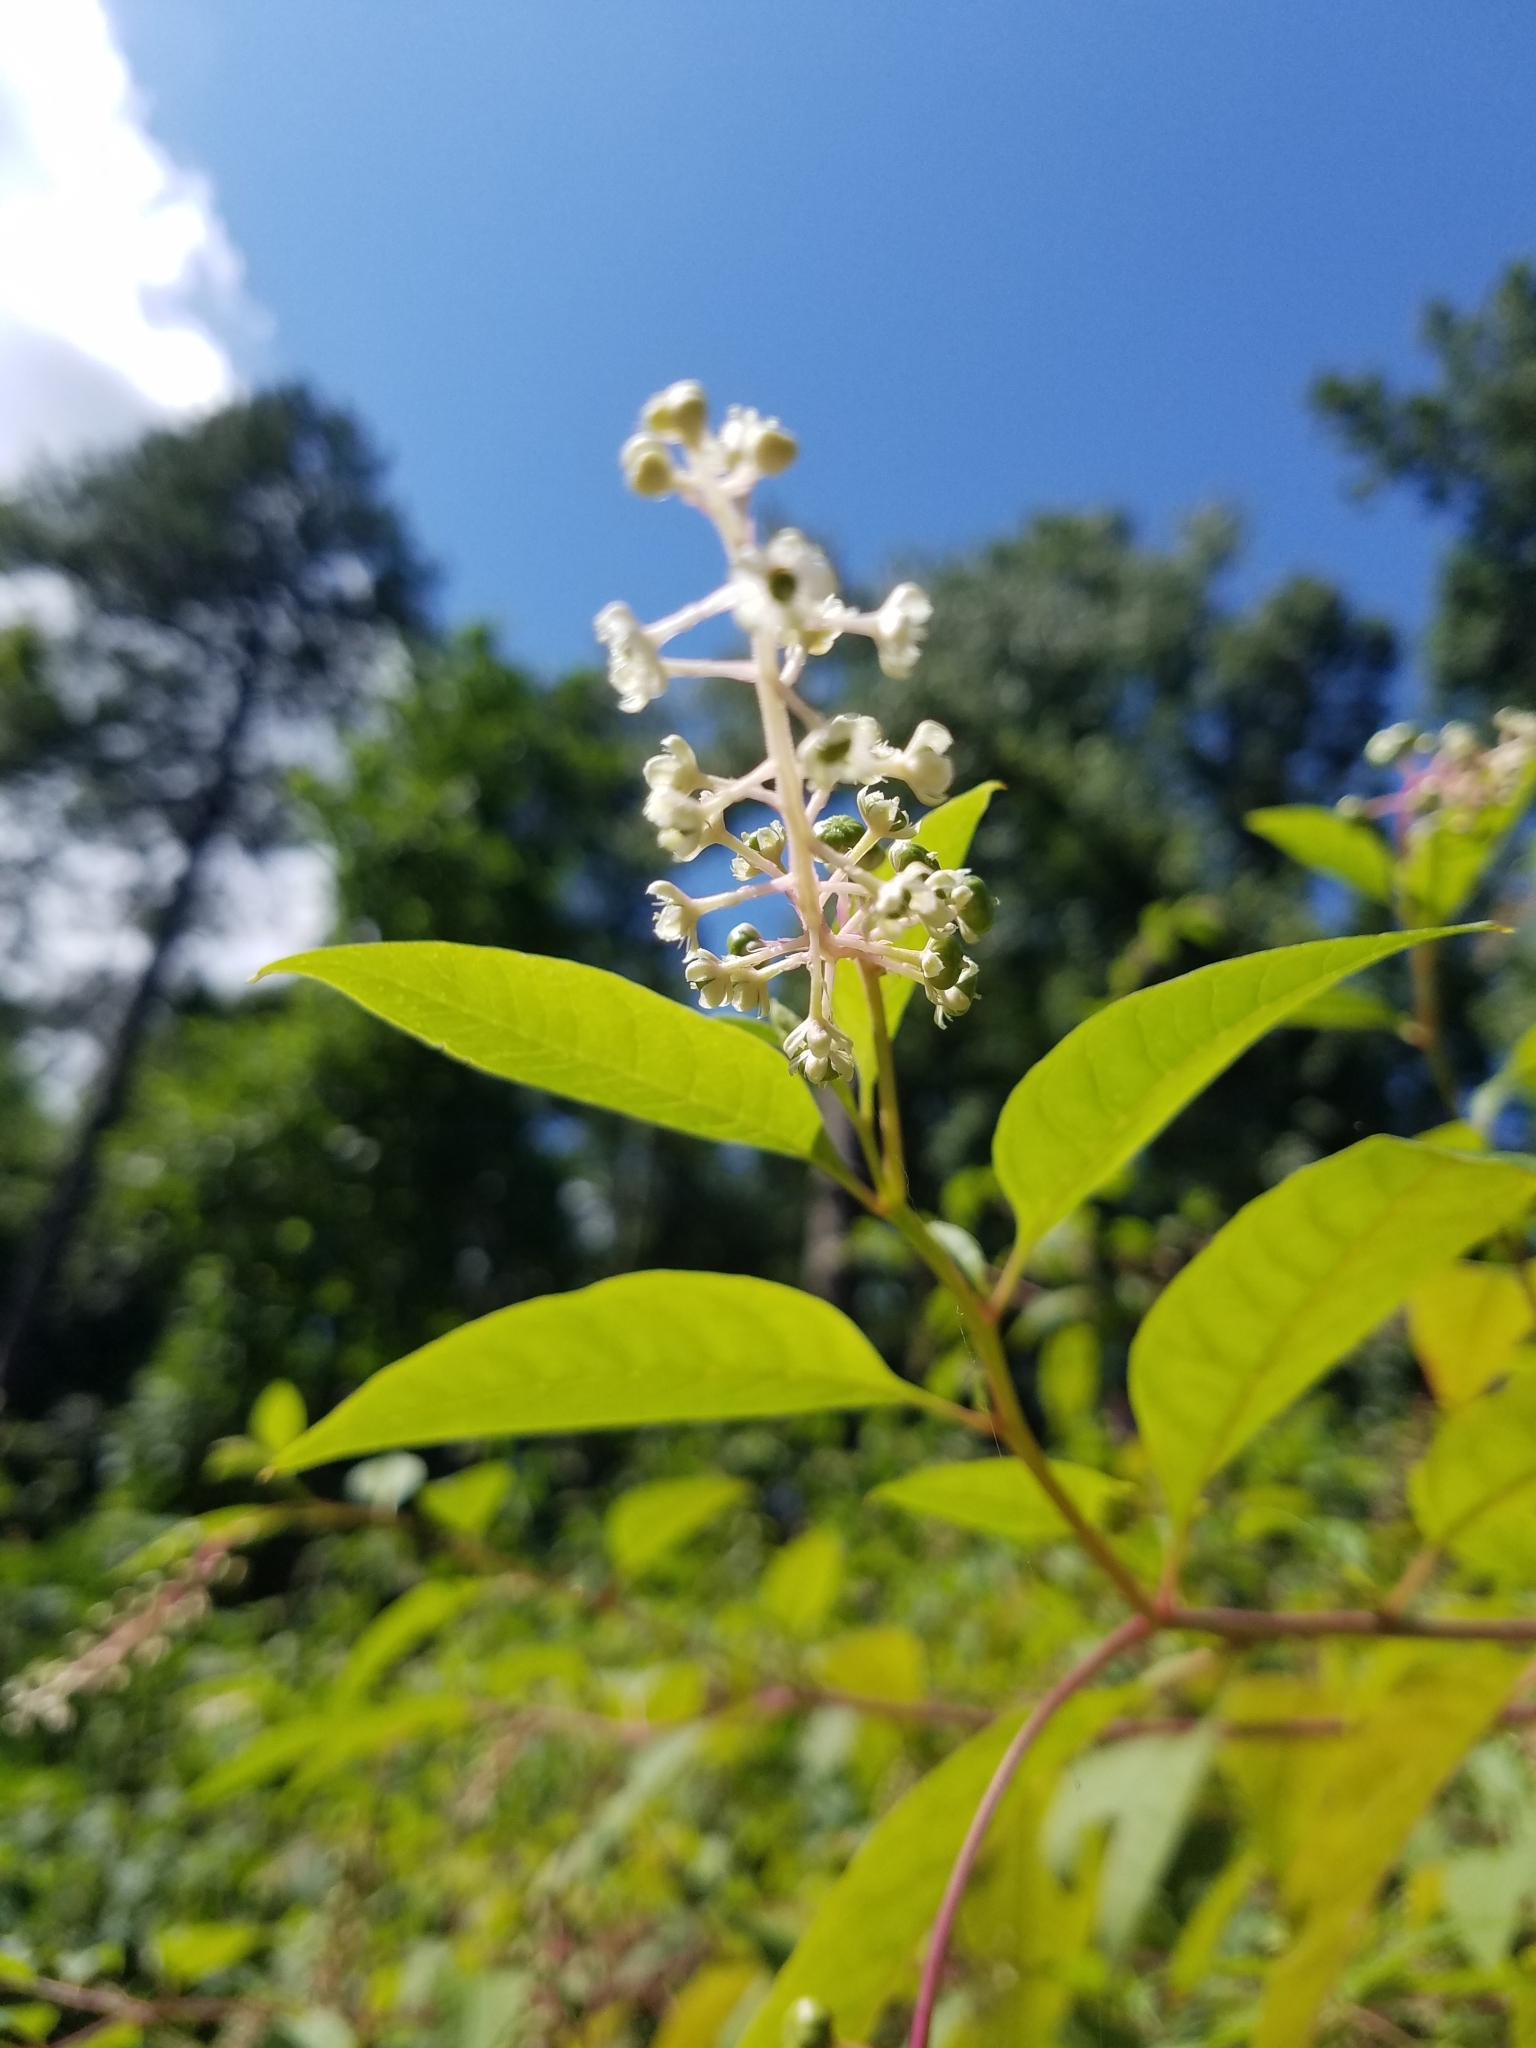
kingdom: Plantae
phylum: Tracheophyta
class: Magnoliopsida
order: Caryophyllales
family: Phytolaccaceae
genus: Phytolacca
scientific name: Phytolacca americana
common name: American pokeweed
